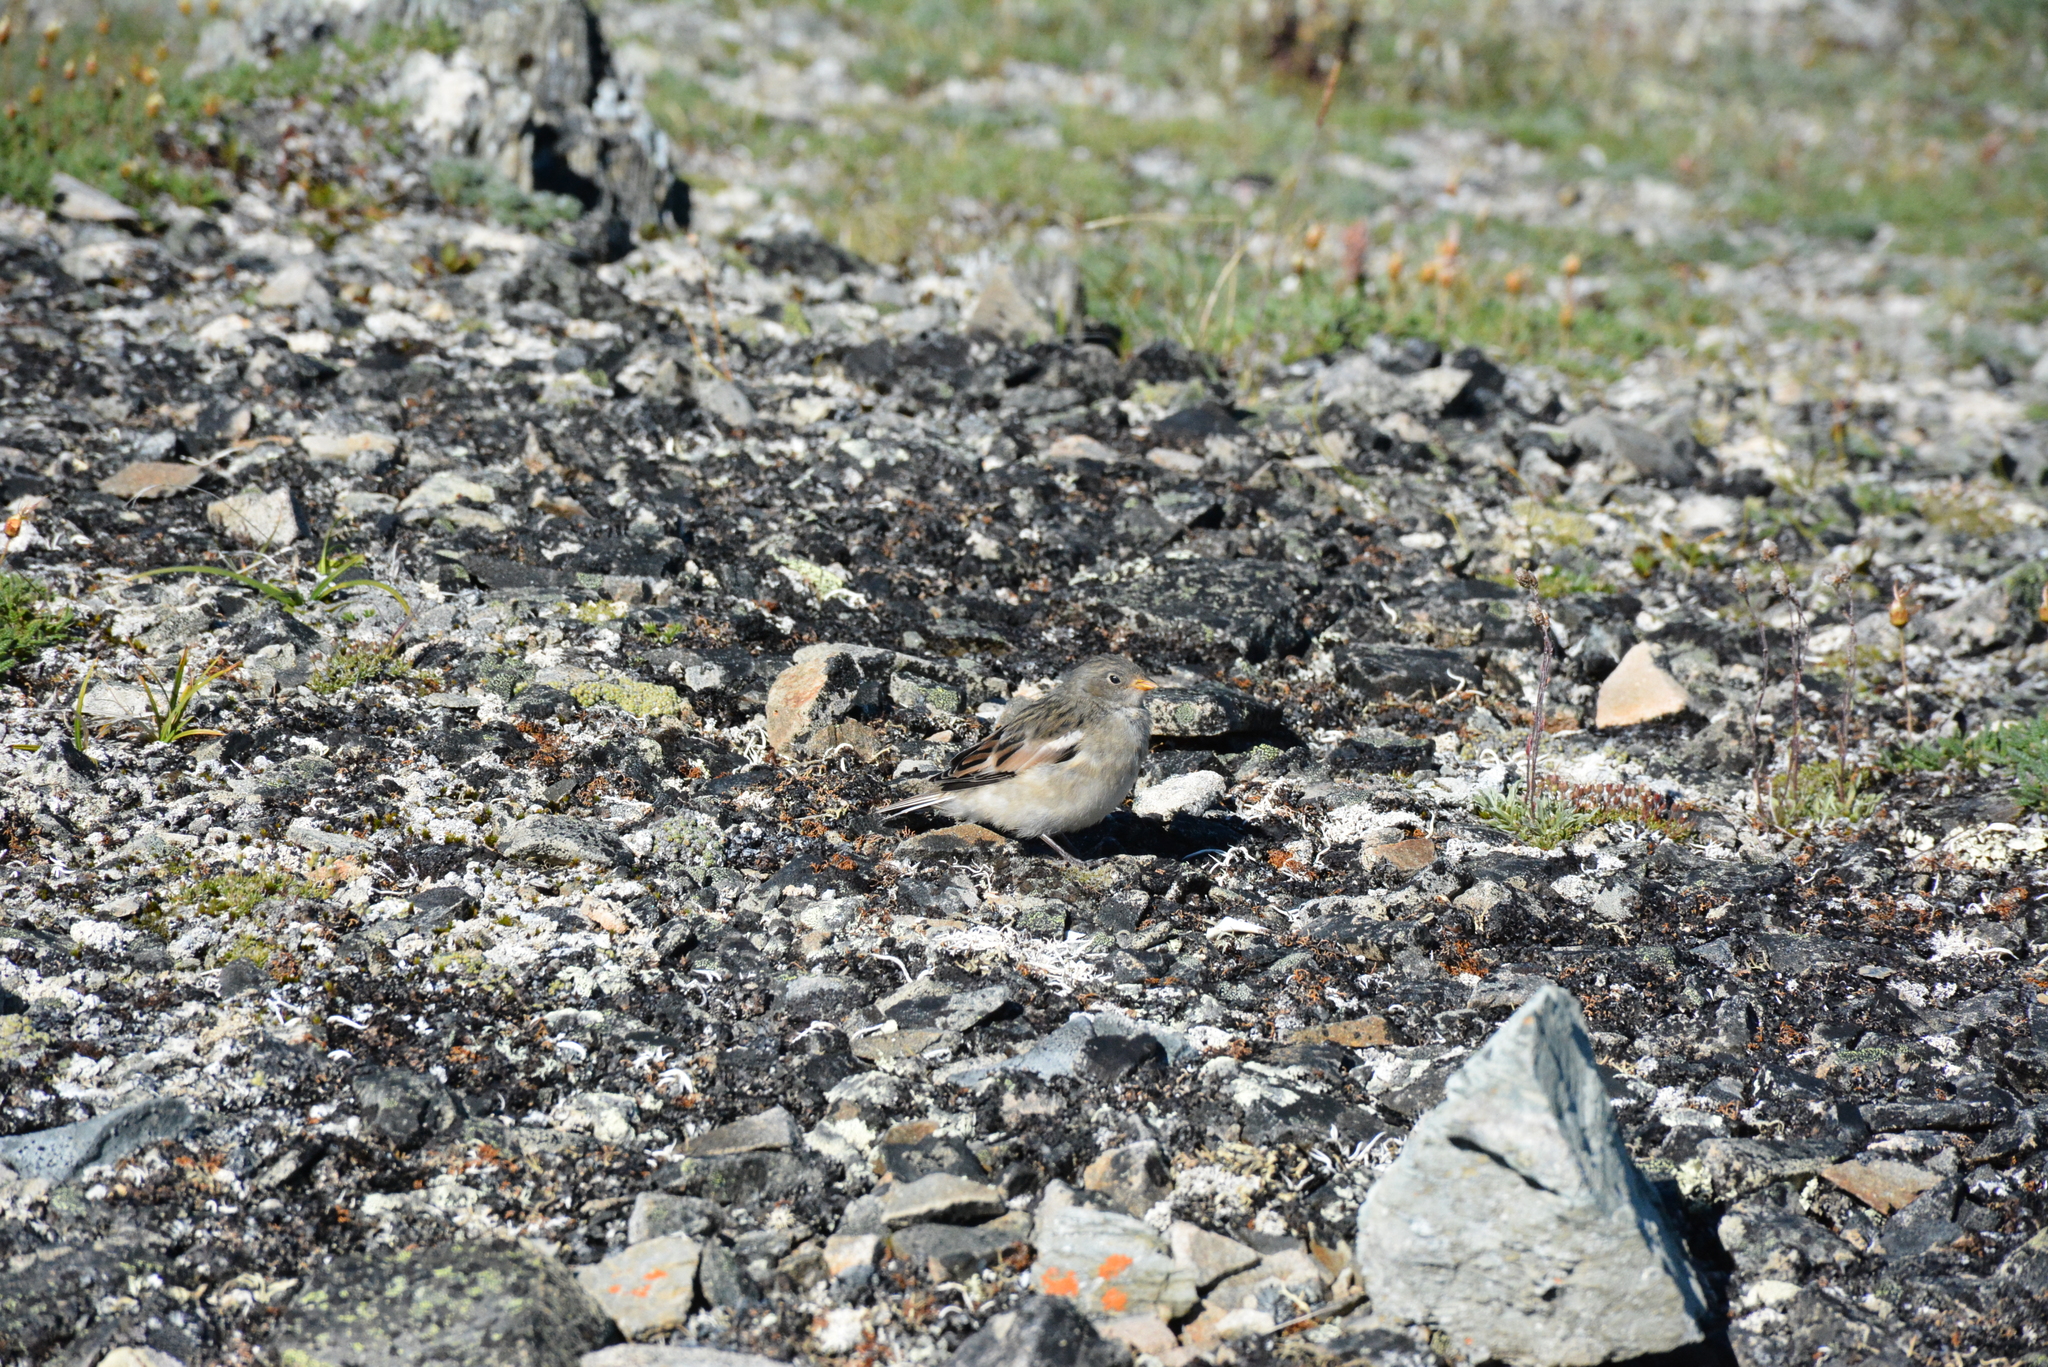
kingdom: Animalia
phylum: Chordata
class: Aves
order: Passeriformes
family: Calcariidae
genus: Plectrophenax
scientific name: Plectrophenax nivalis
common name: Snow bunting
